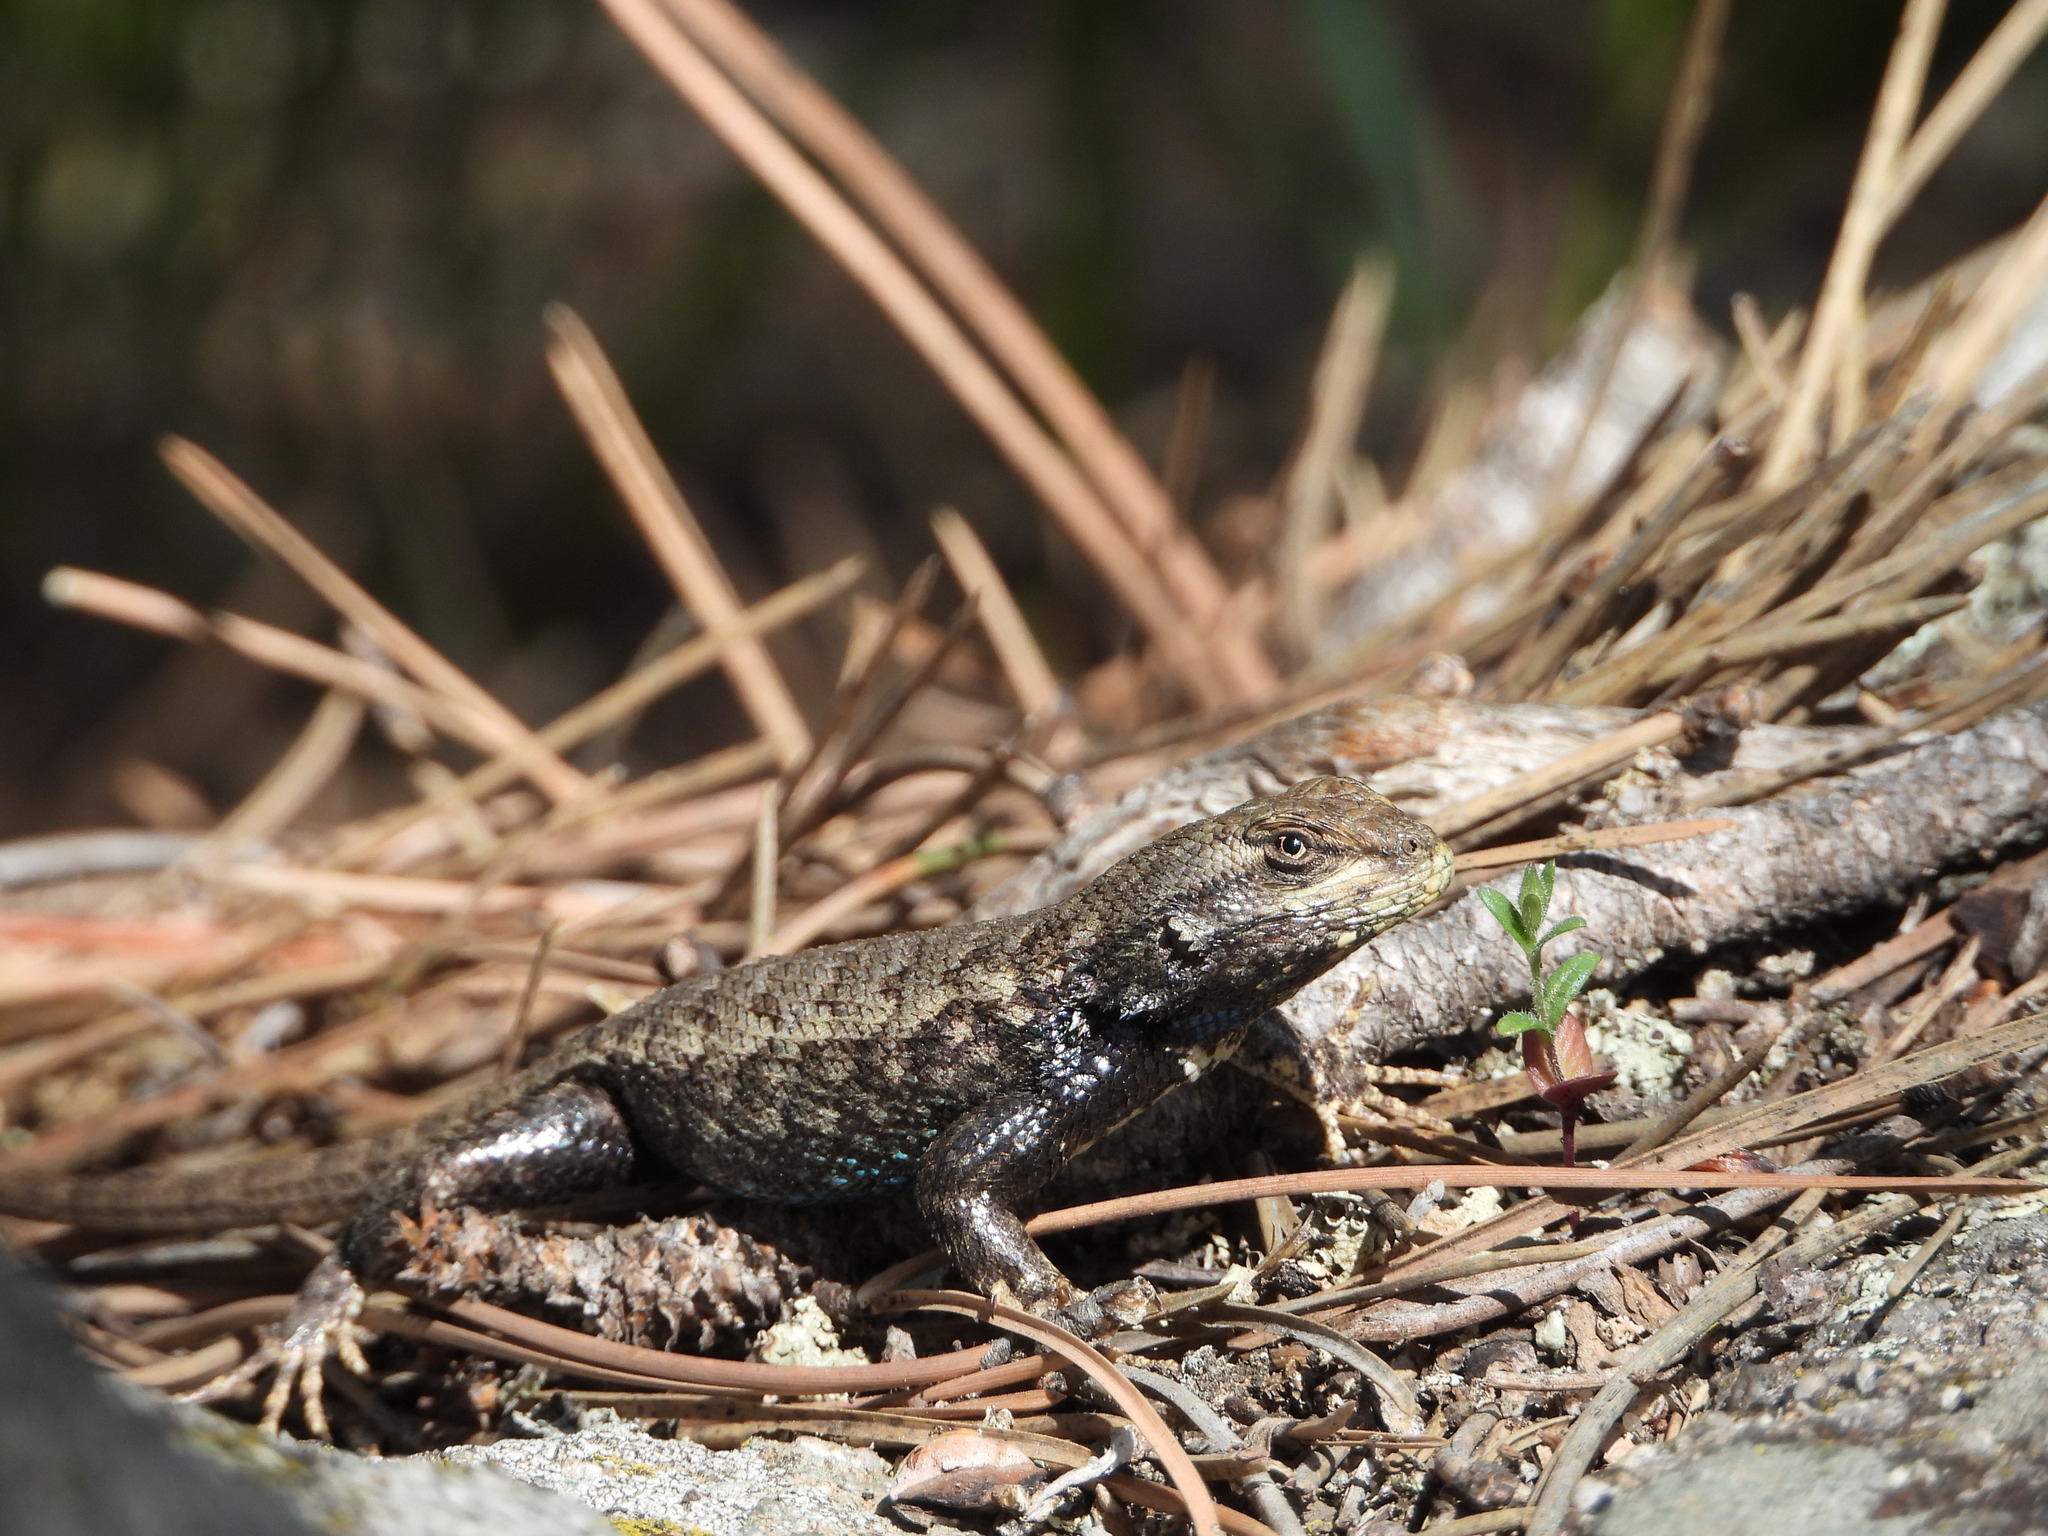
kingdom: Animalia
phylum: Chordata
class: Squamata
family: Phrynosomatidae
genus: Sceloporus
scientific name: Sceloporus consobrinus
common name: Southern prairie lizard
